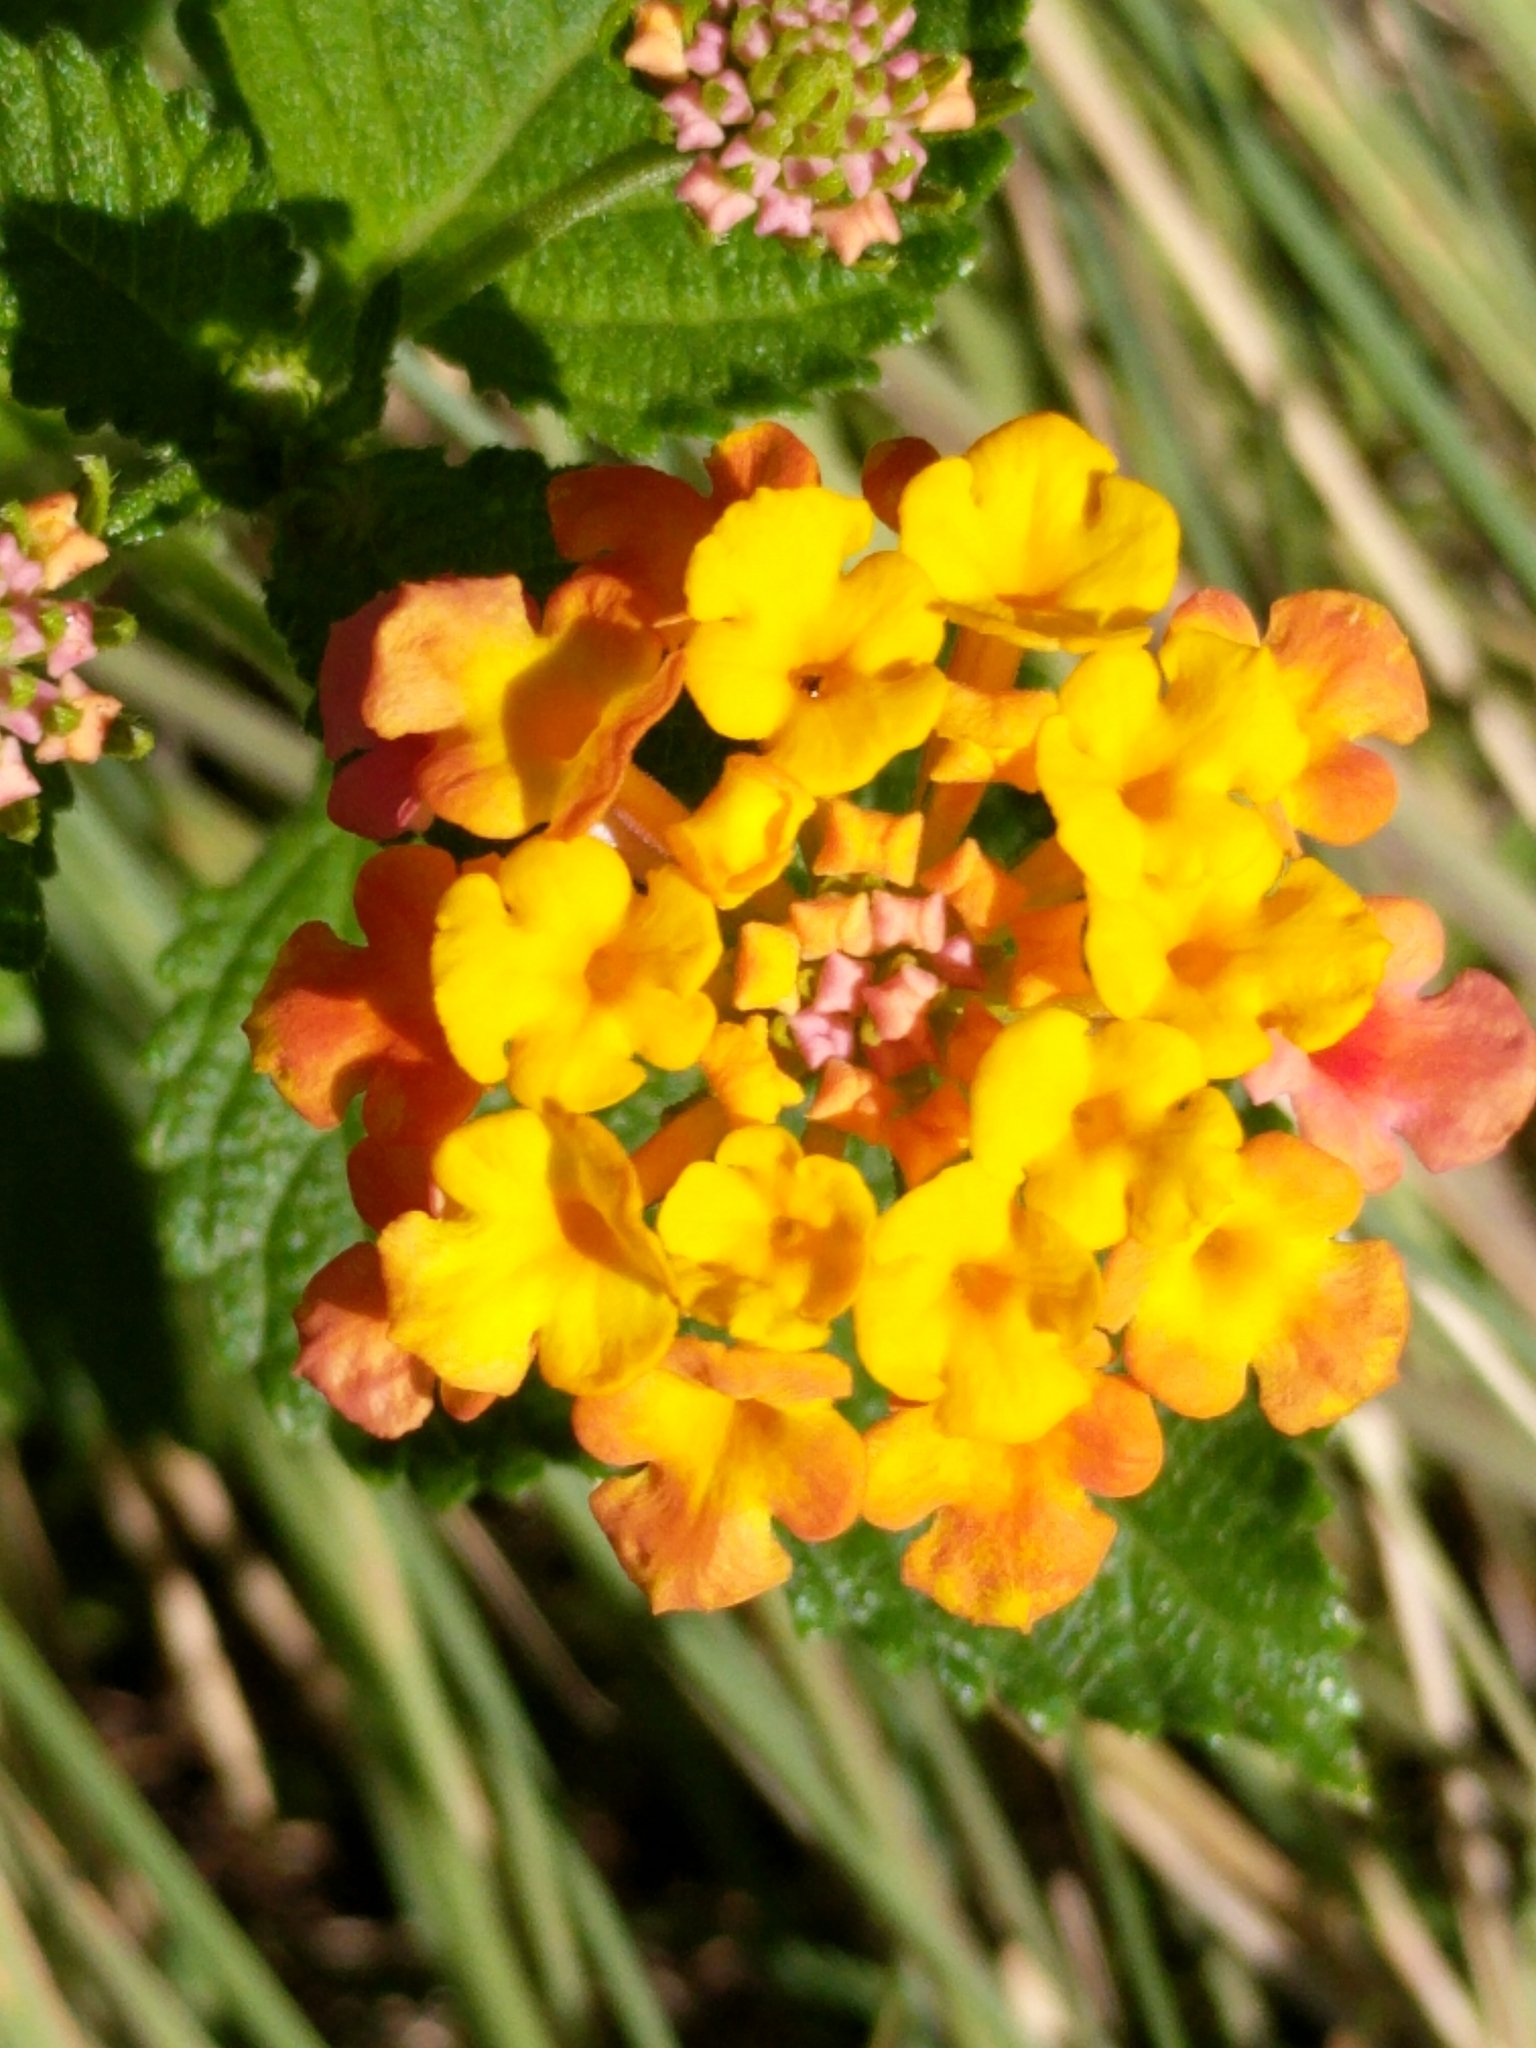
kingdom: Plantae
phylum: Tracheophyta
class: Magnoliopsida
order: Lamiales
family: Verbenaceae
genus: Lantana
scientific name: Lantana camara
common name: Lantana
